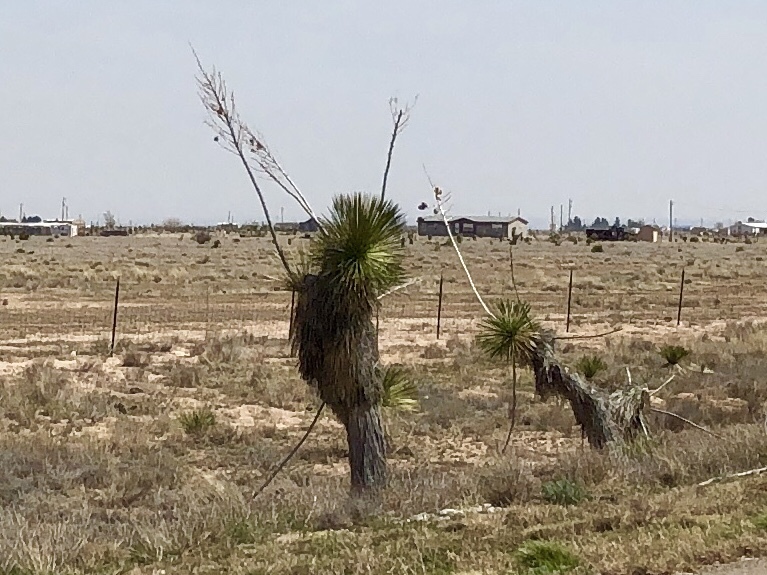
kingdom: Plantae
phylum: Tracheophyta
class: Liliopsida
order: Asparagales
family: Asparagaceae
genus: Yucca
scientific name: Yucca elata
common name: Palmella
